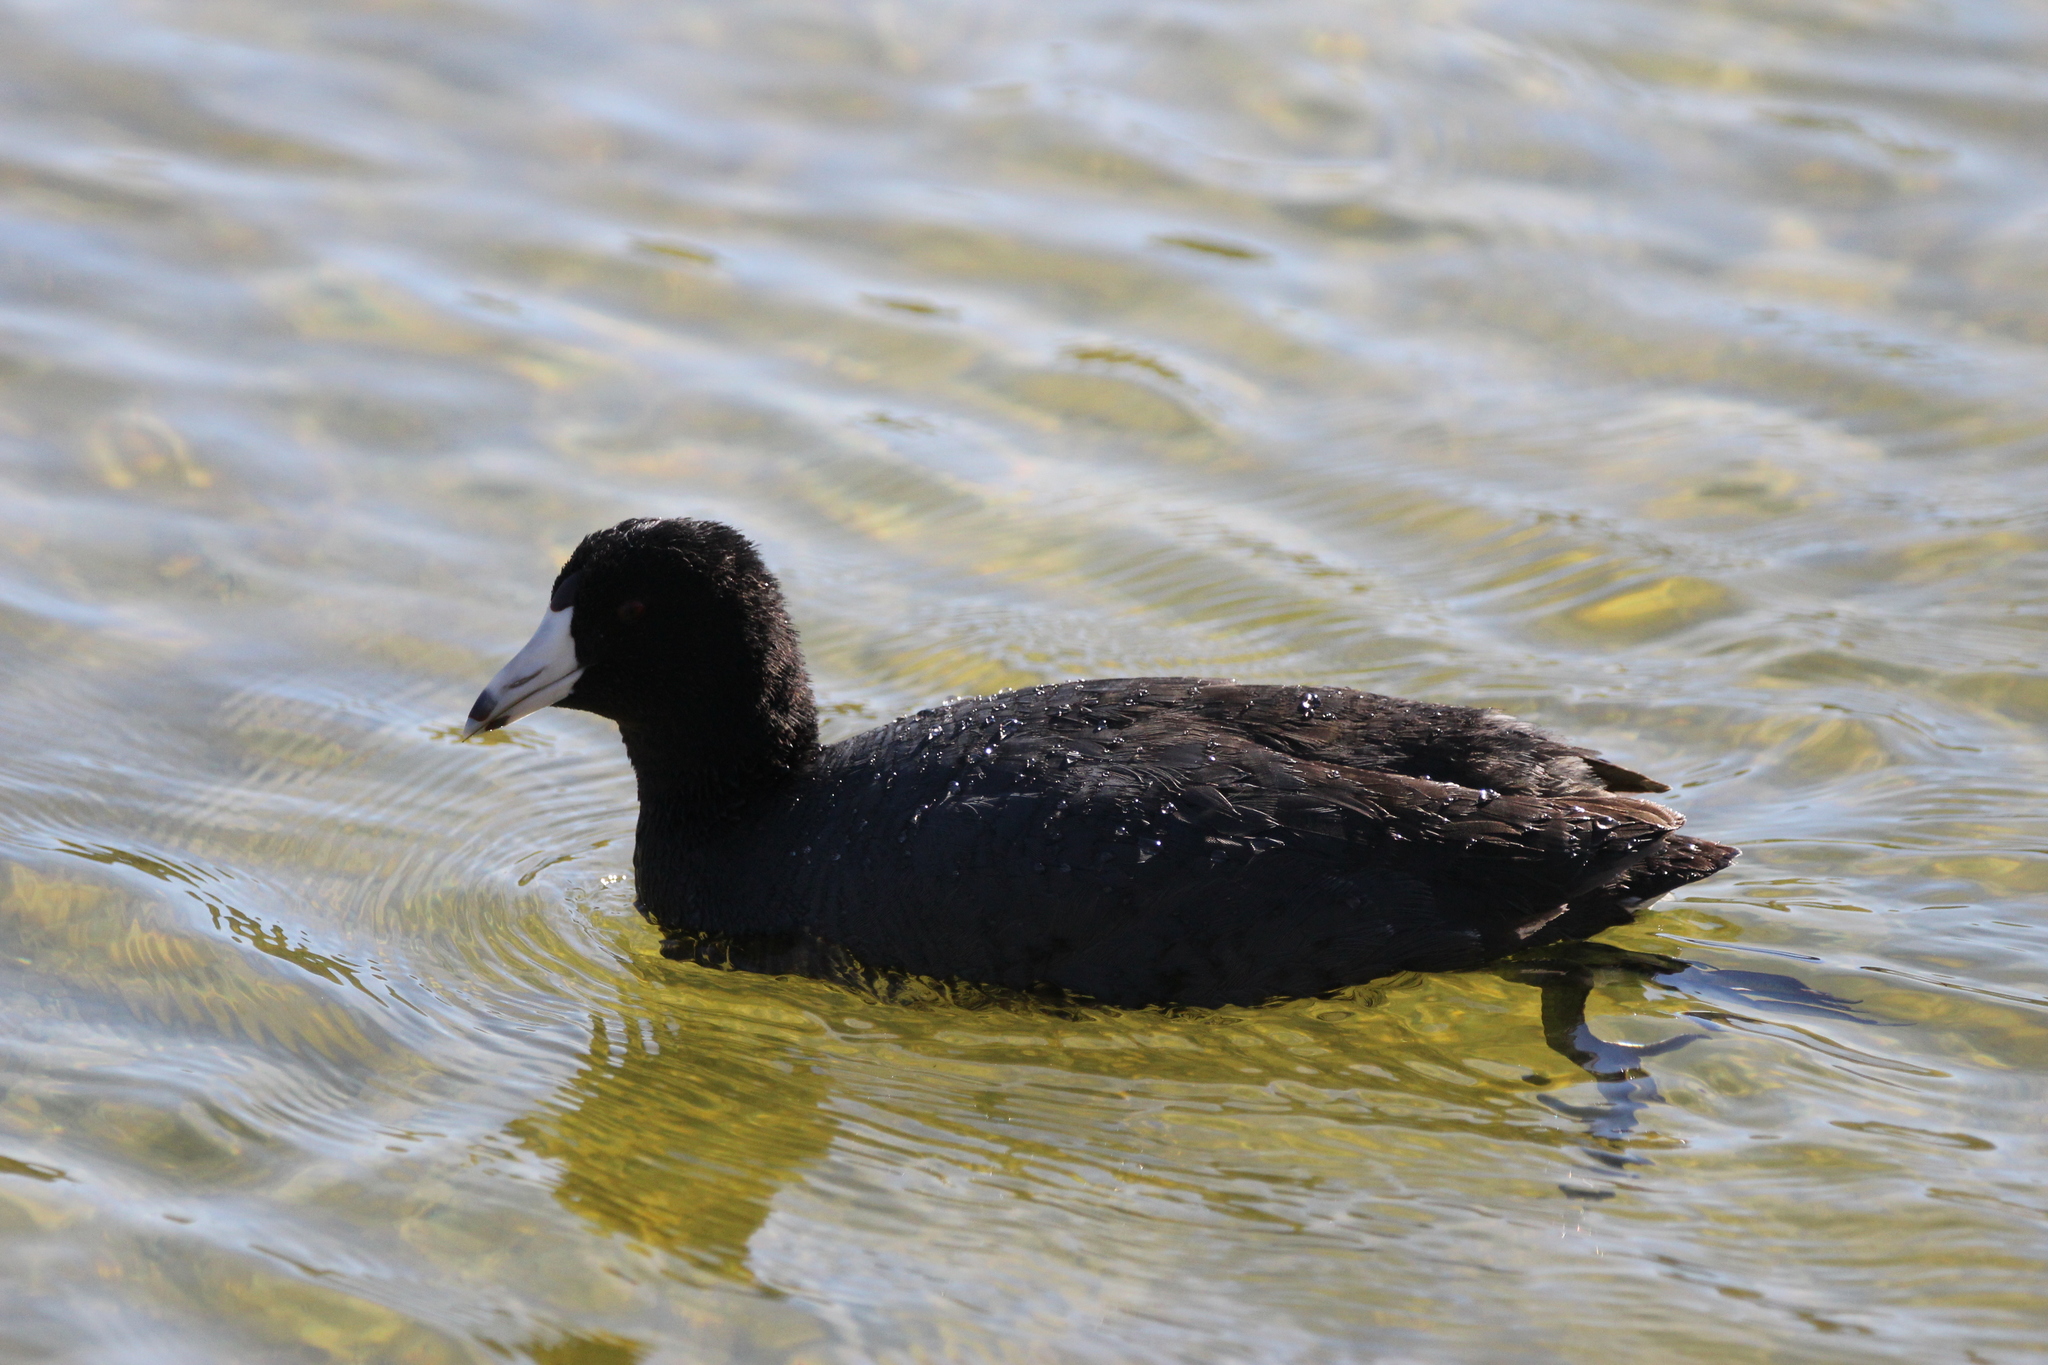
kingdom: Animalia
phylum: Chordata
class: Aves
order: Gruiformes
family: Rallidae
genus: Fulica
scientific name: Fulica americana
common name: American coot
